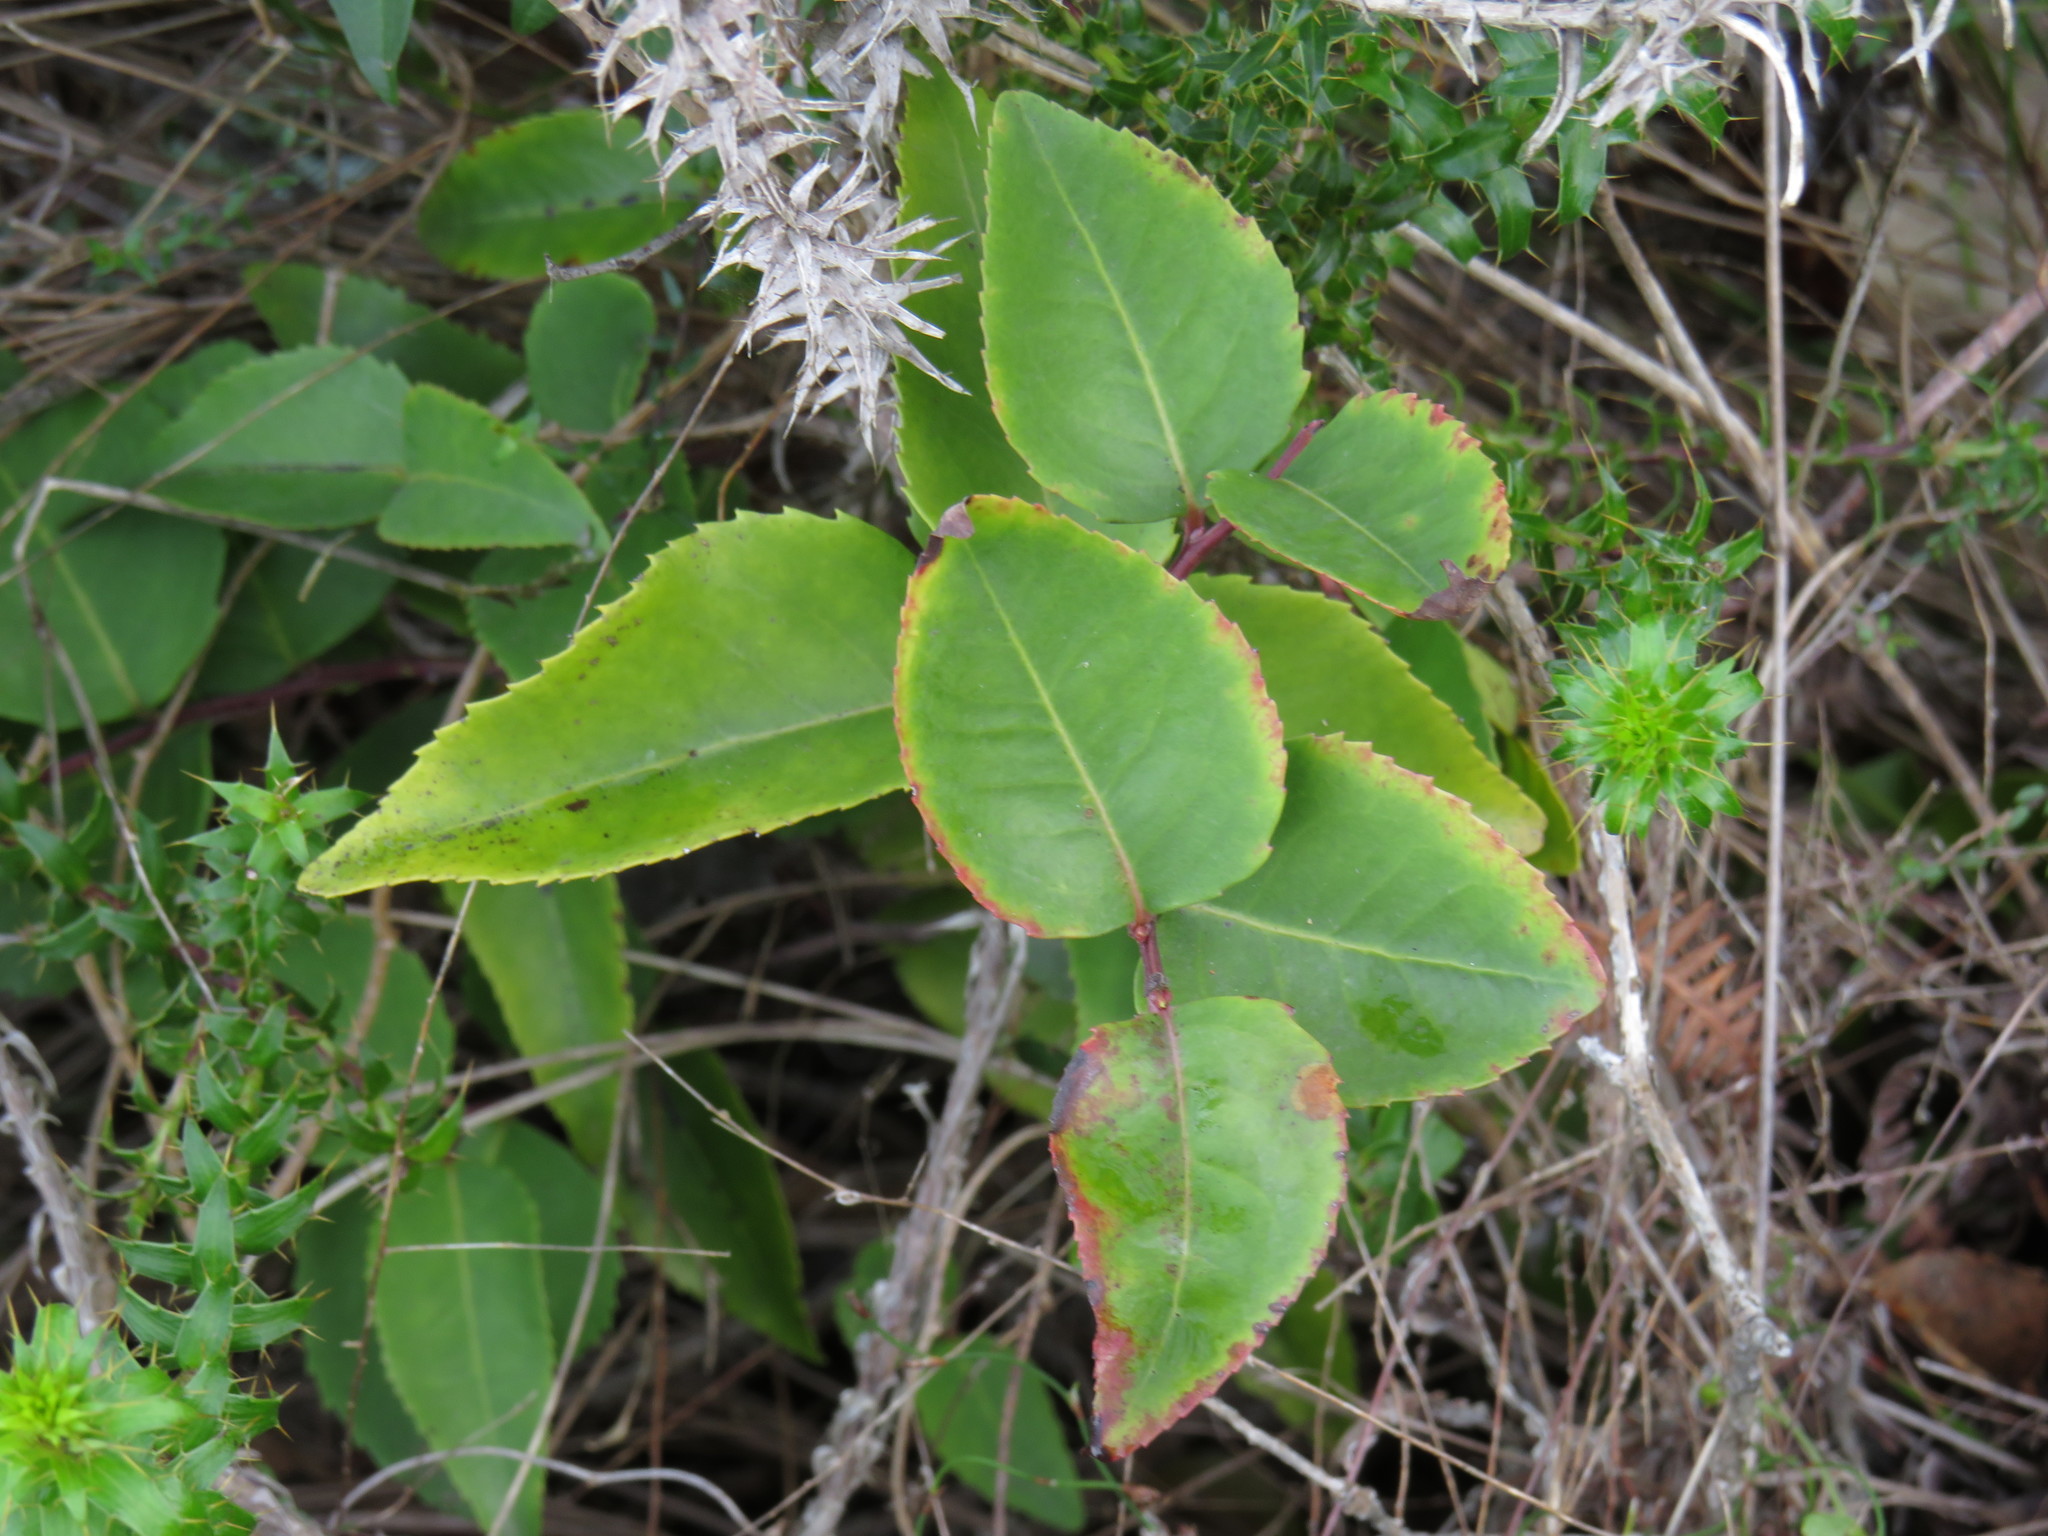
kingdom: Plantae
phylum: Tracheophyta
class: Magnoliopsida
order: Celastrales
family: Celastraceae
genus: Gymnosporia
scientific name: Gymnosporia acuminata
